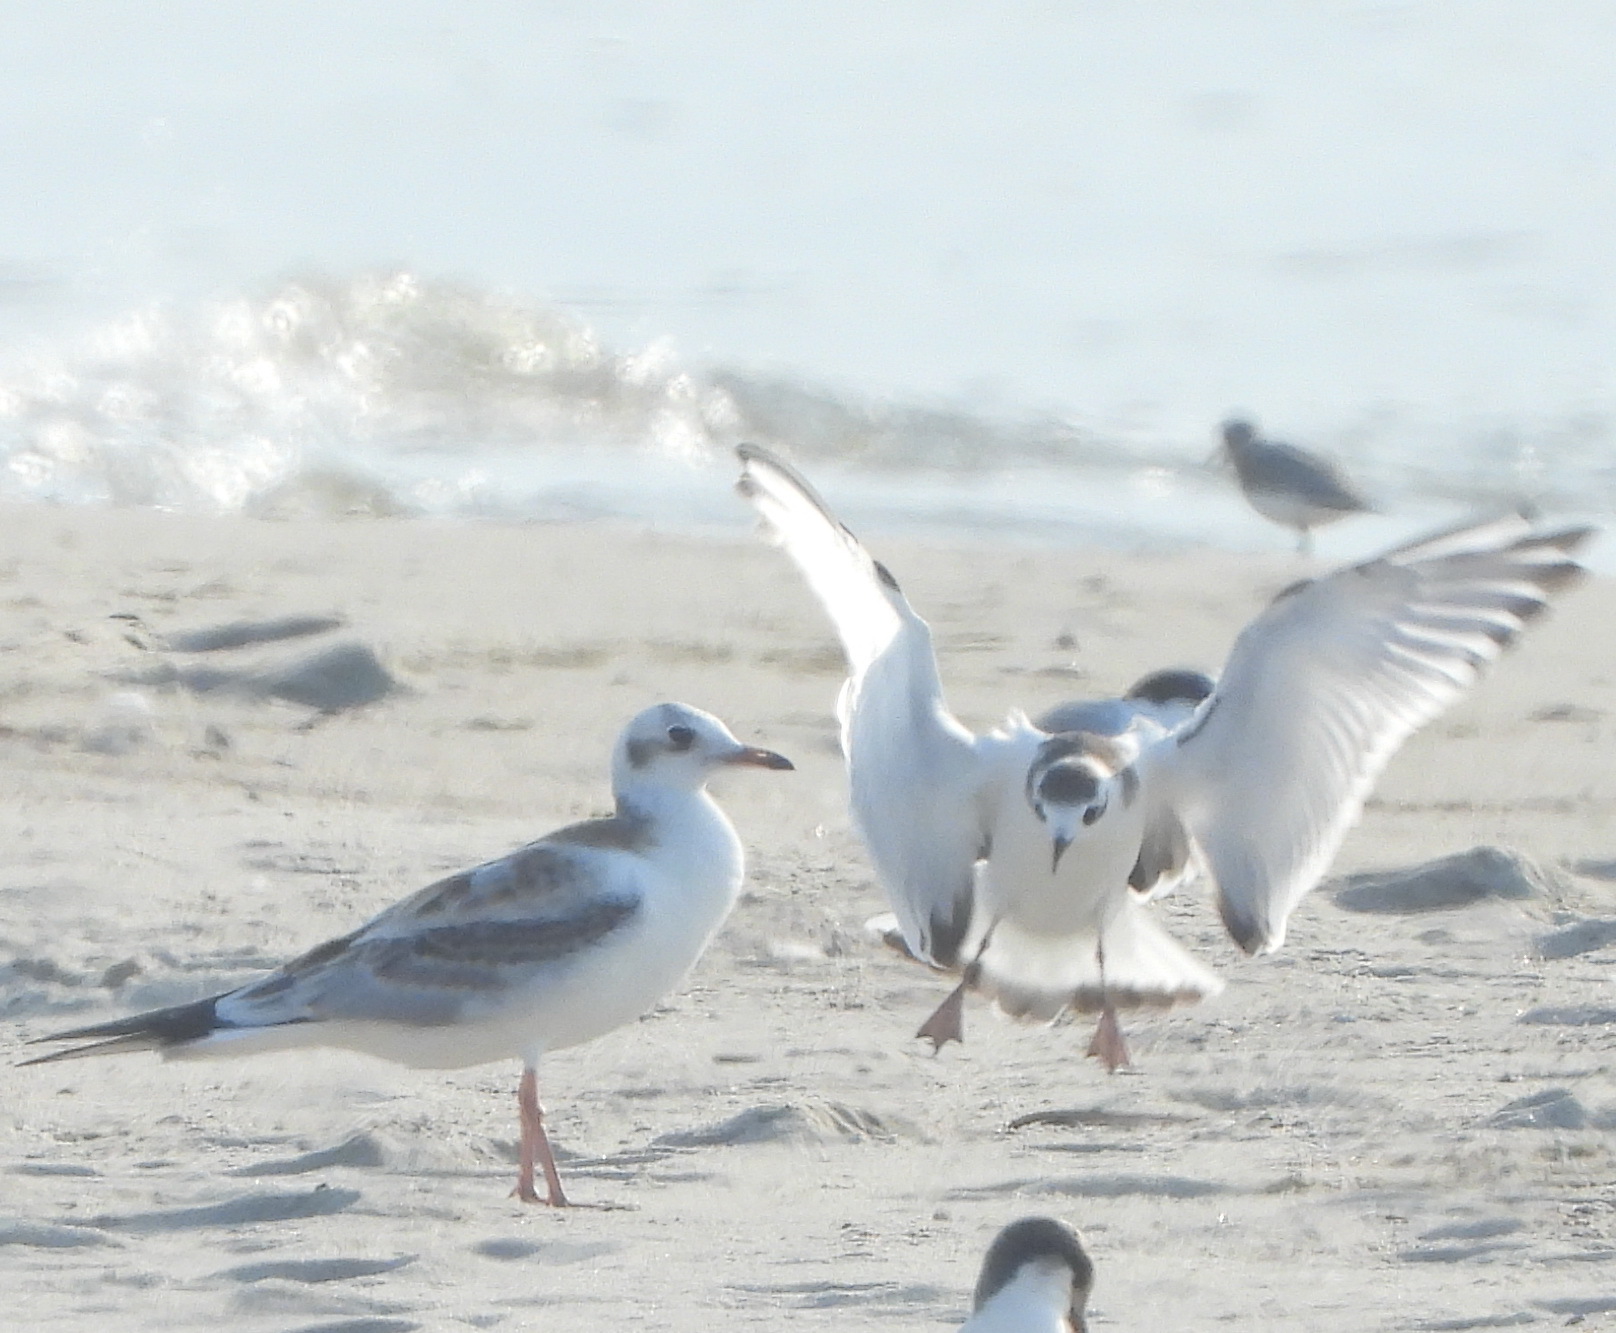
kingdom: Animalia
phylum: Chordata
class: Aves
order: Charadriiformes
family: Laridae
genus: Chroicocephalus
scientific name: Chroicocephalus ridibundus
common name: Black-headed gull
